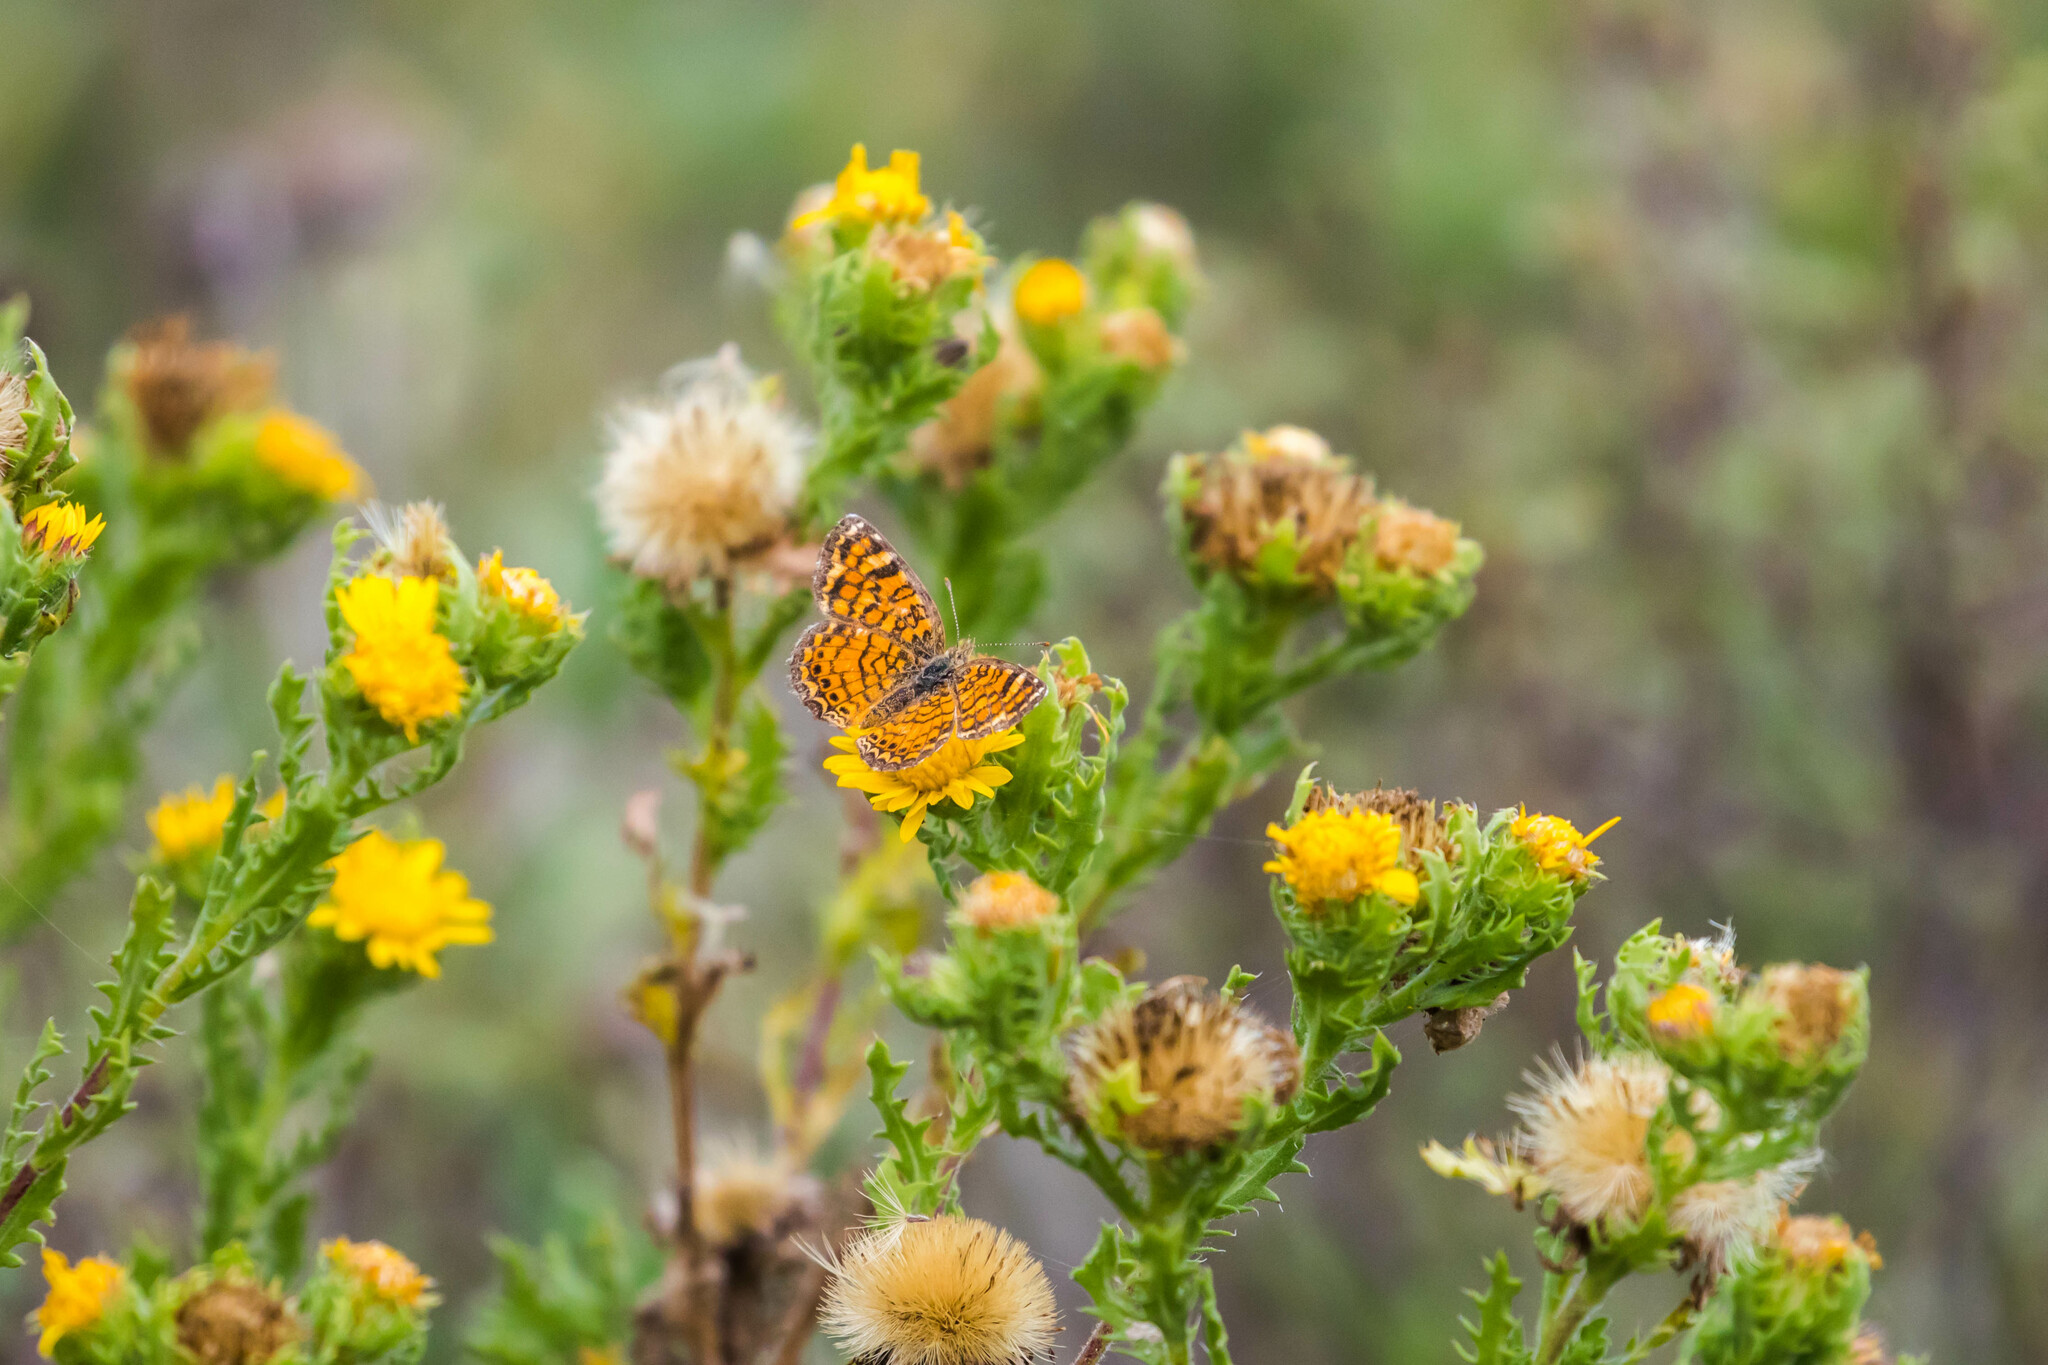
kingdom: Animalia
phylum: Arthropoda
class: Insecta
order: Lepidoptera
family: Nymphalidae
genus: Phyciodes
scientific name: Phyciodes vesta
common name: Vesta crescent
